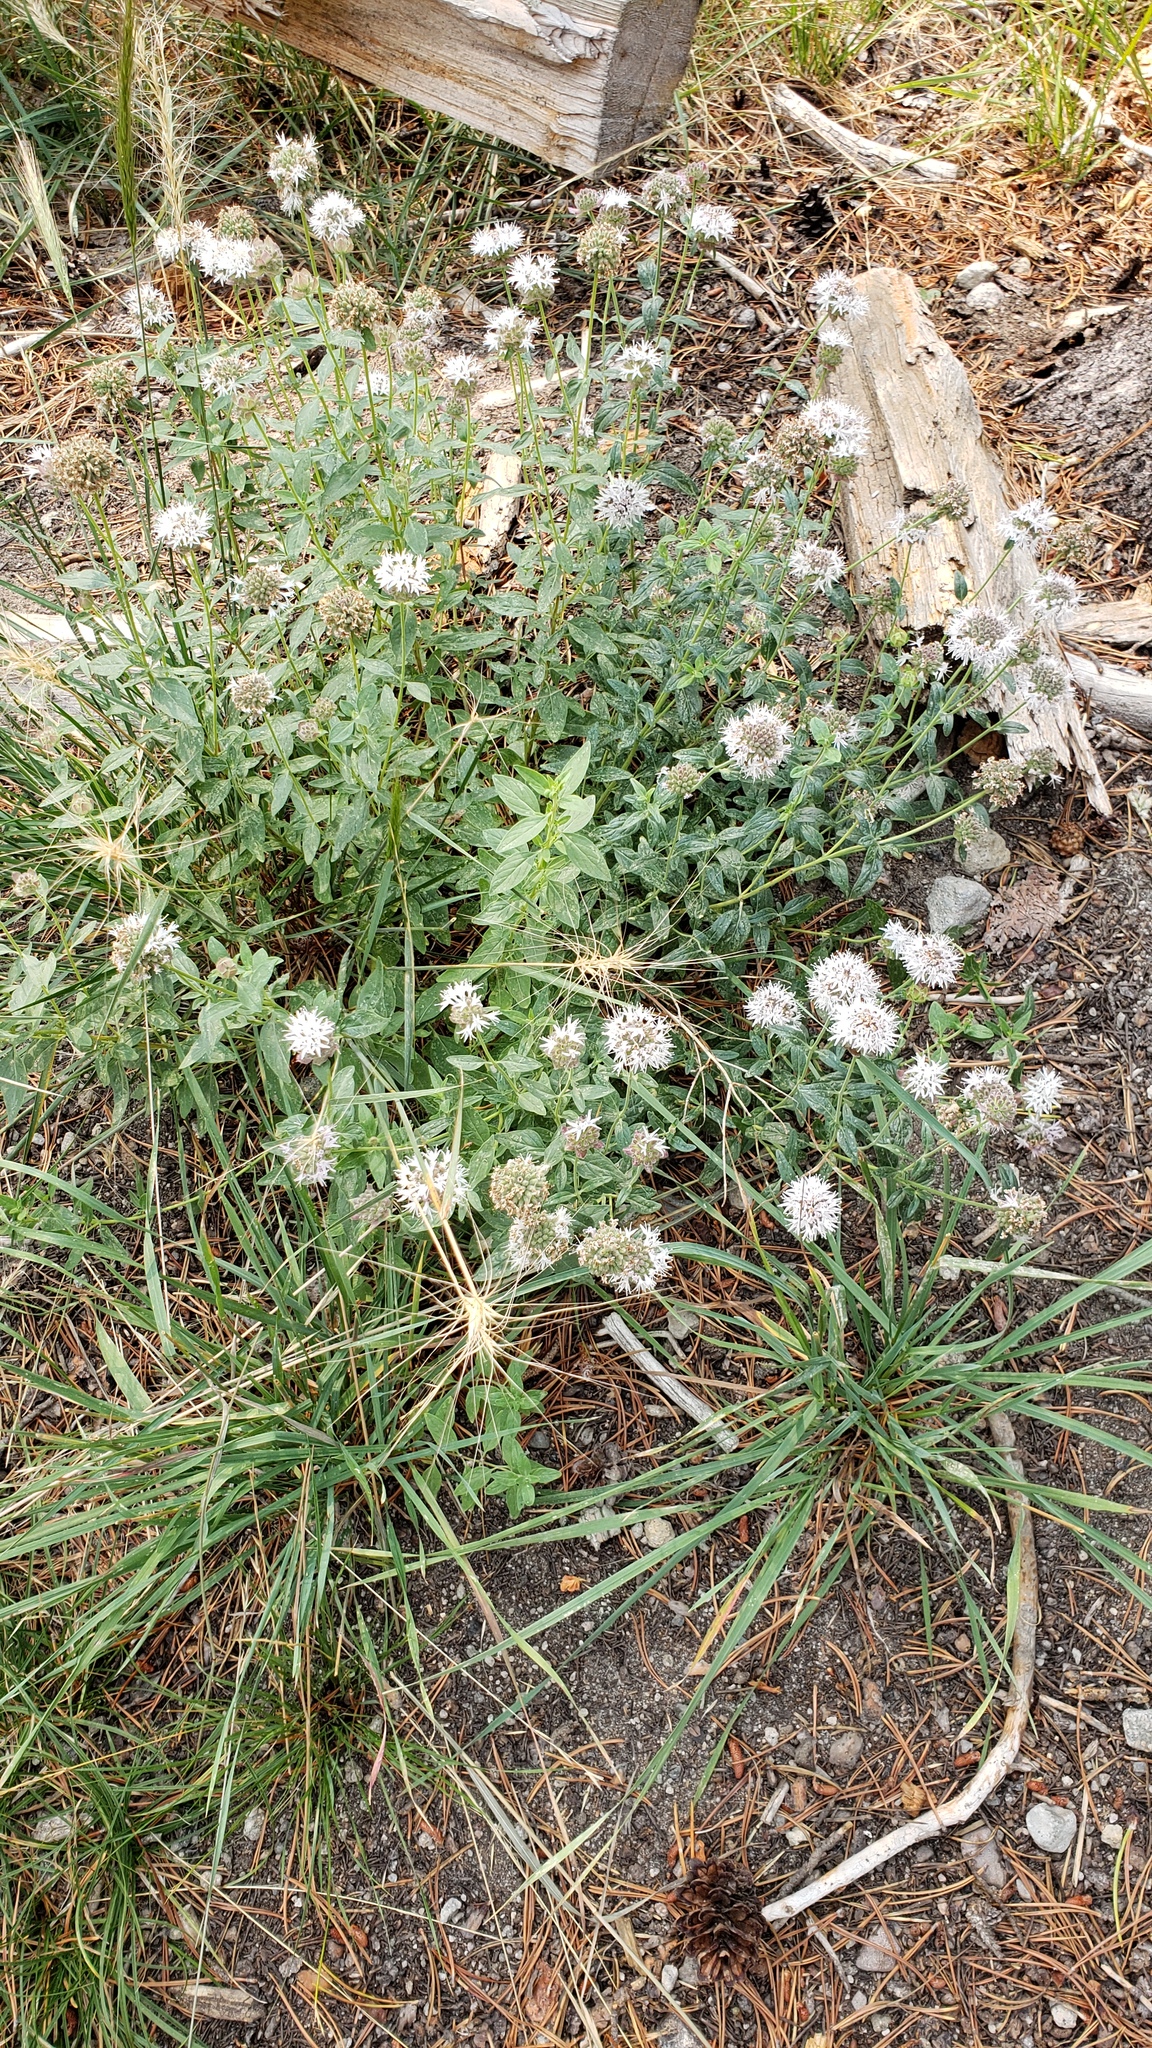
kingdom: Plantae
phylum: Tracheophyta
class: Magnoliopsida
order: Lamiales
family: Lamiaceae
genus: Monardella
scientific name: Monardella odoratissima
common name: Pacific monardella
